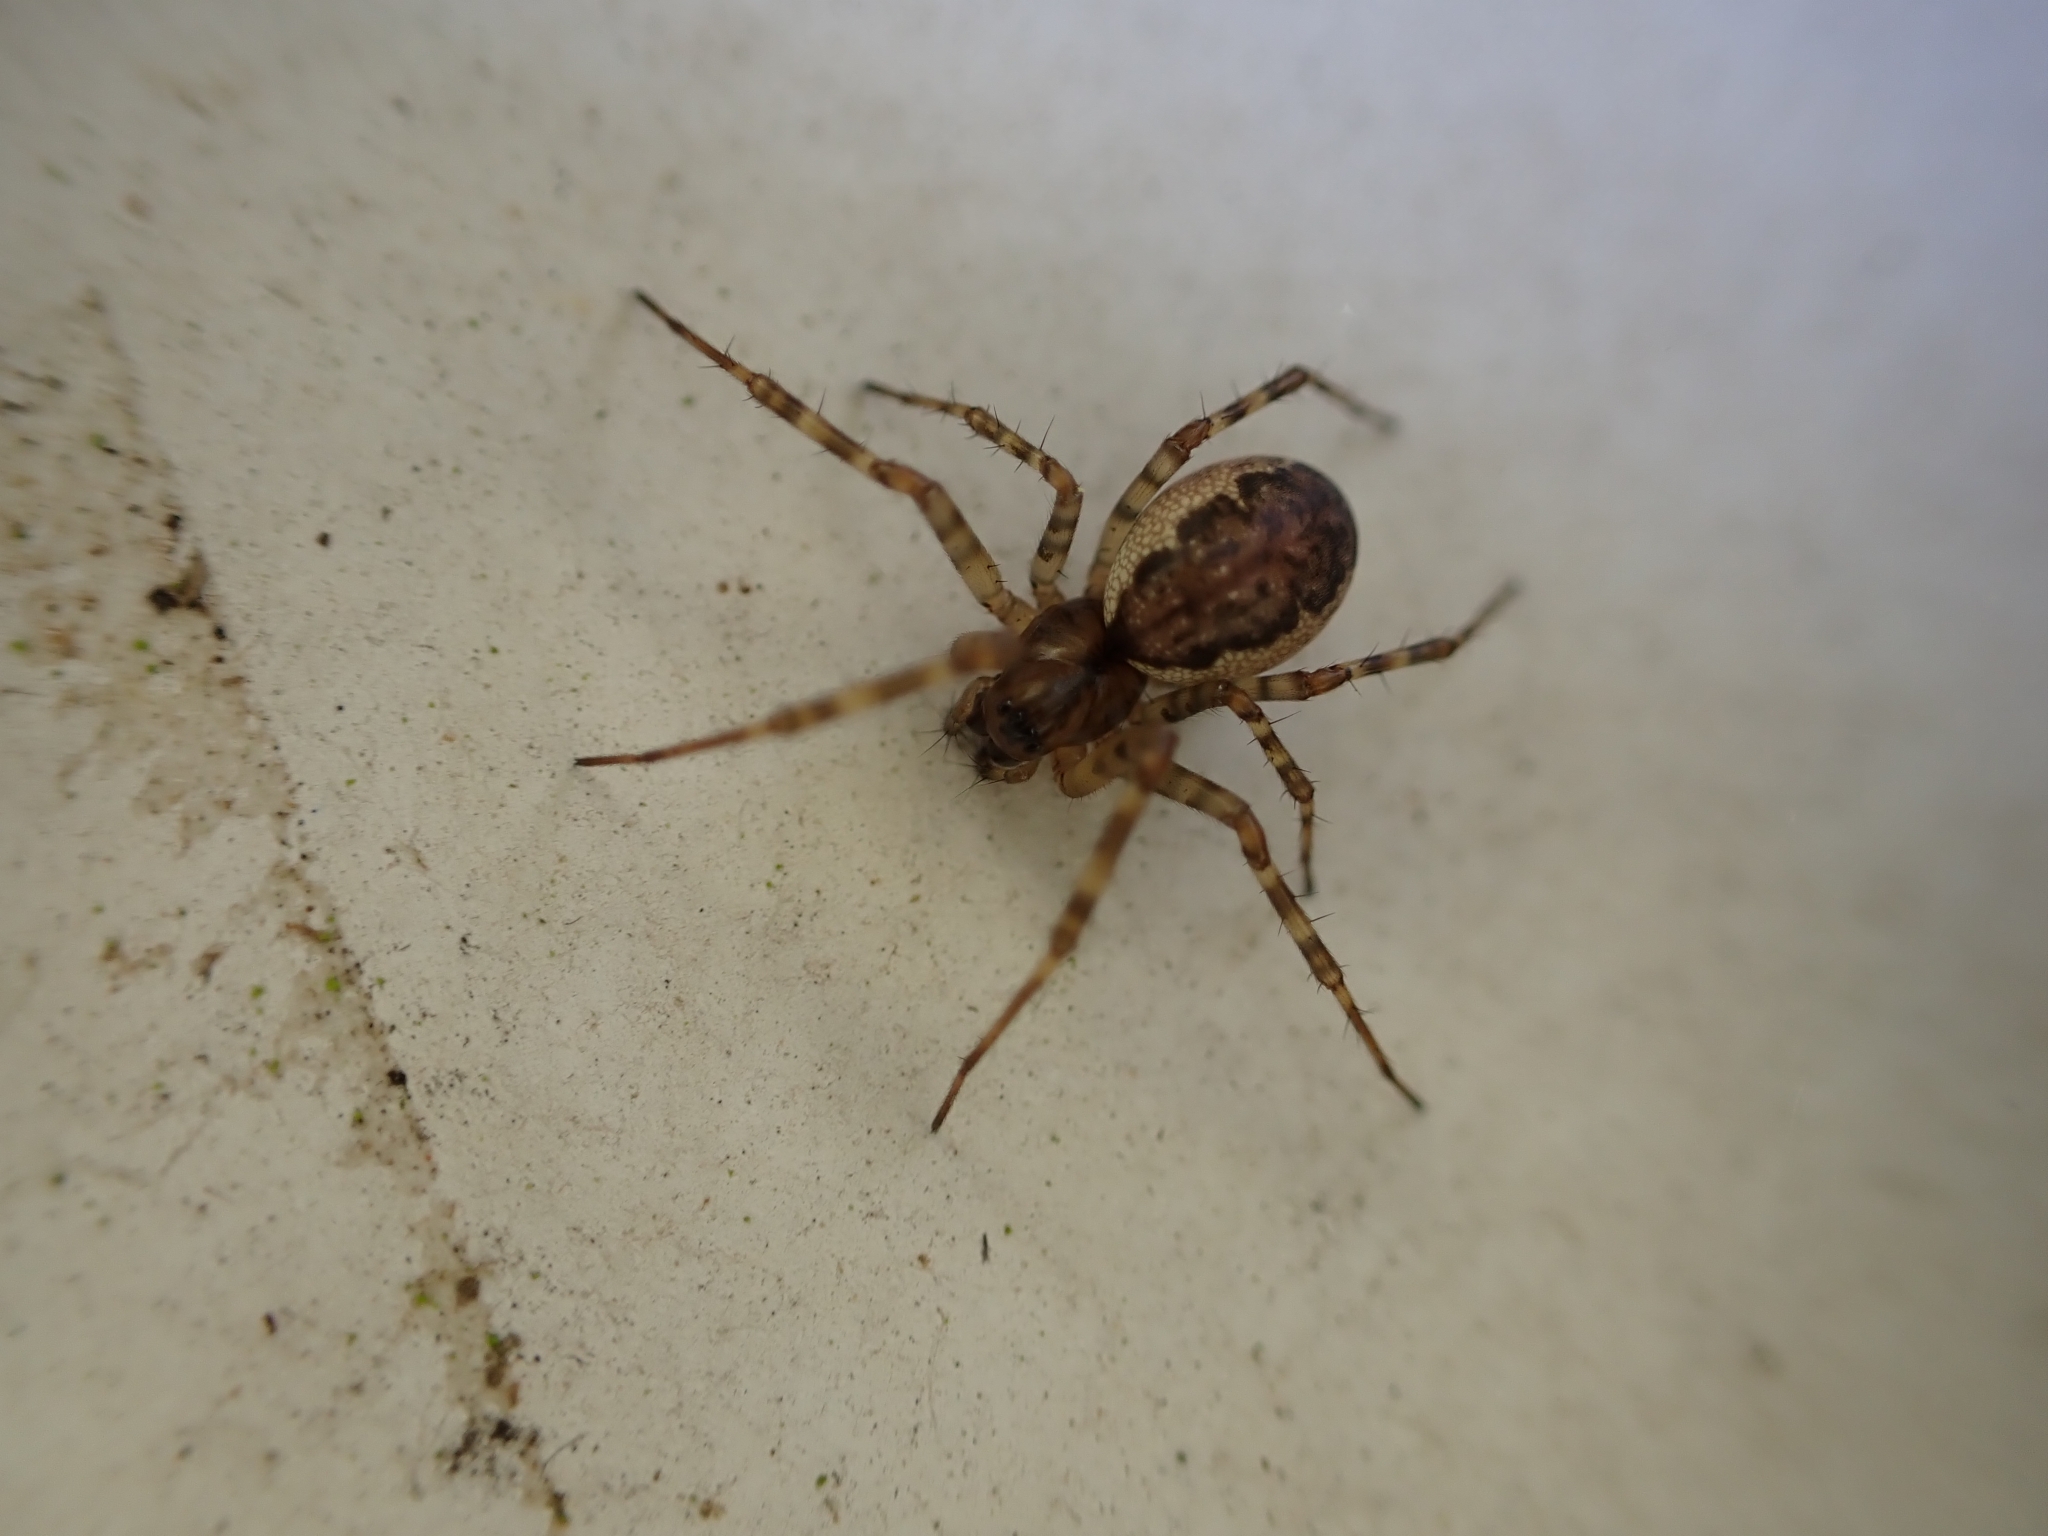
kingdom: Animalia
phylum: Arthropoda
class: Arachnida
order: Araneae
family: Linyphiidae
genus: Neriene
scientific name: Neriene montana
